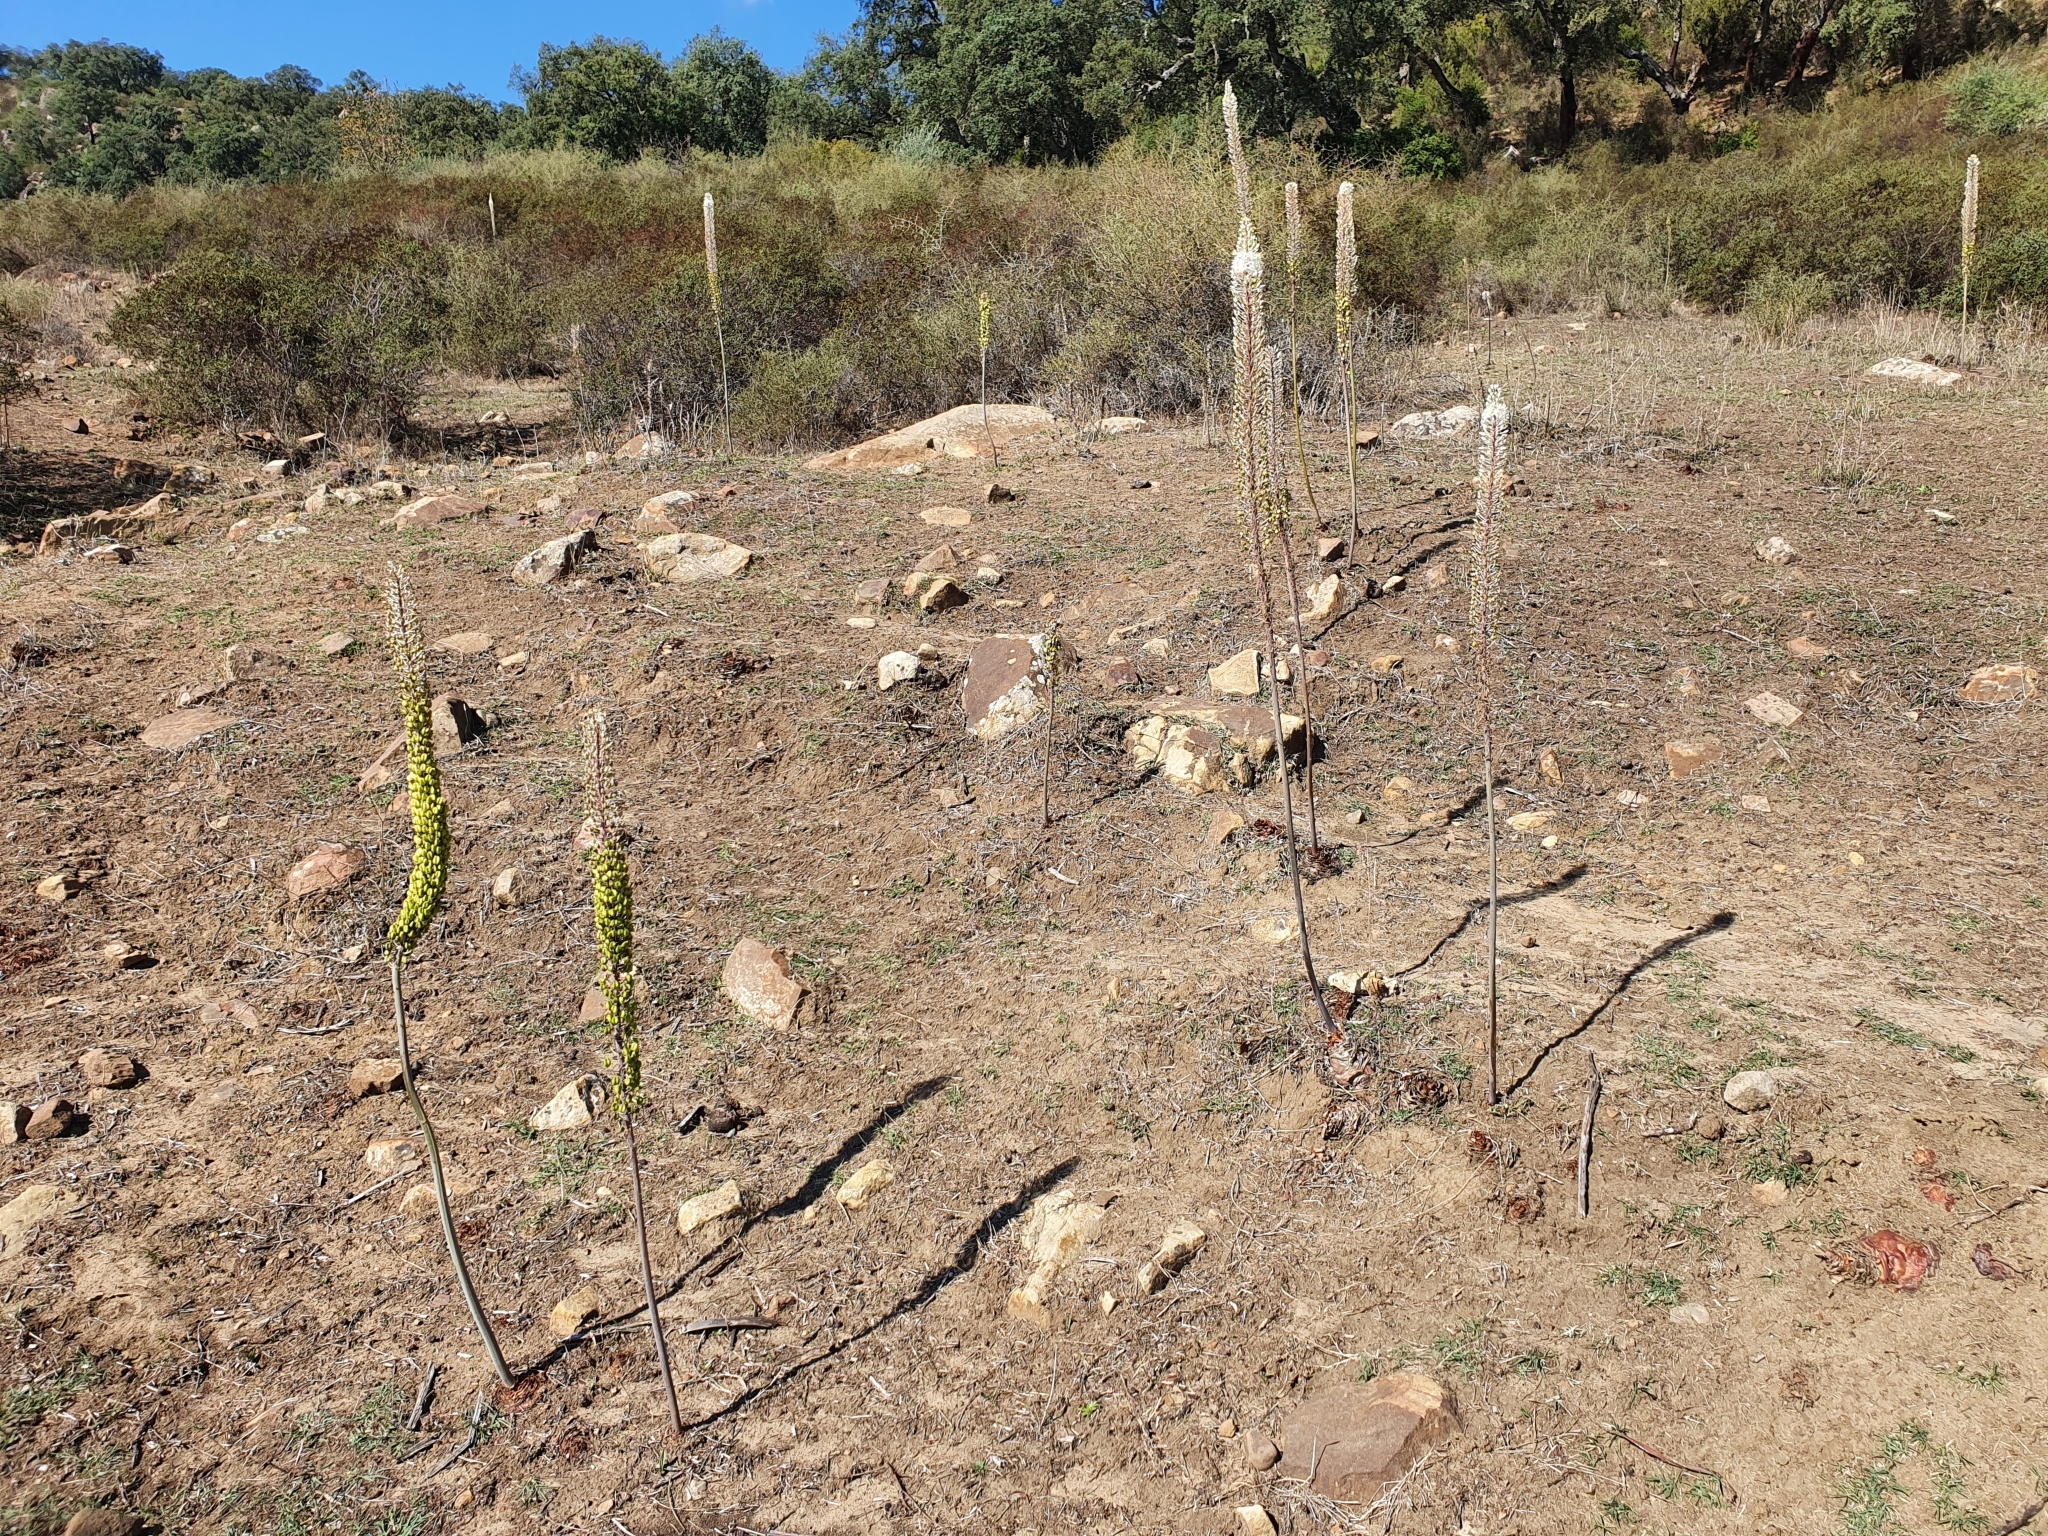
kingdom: Plantae
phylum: Tracheophyta
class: Liliopsida
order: Asparagales
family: Asparagaceae
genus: Drimia
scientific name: Drimia numidica
